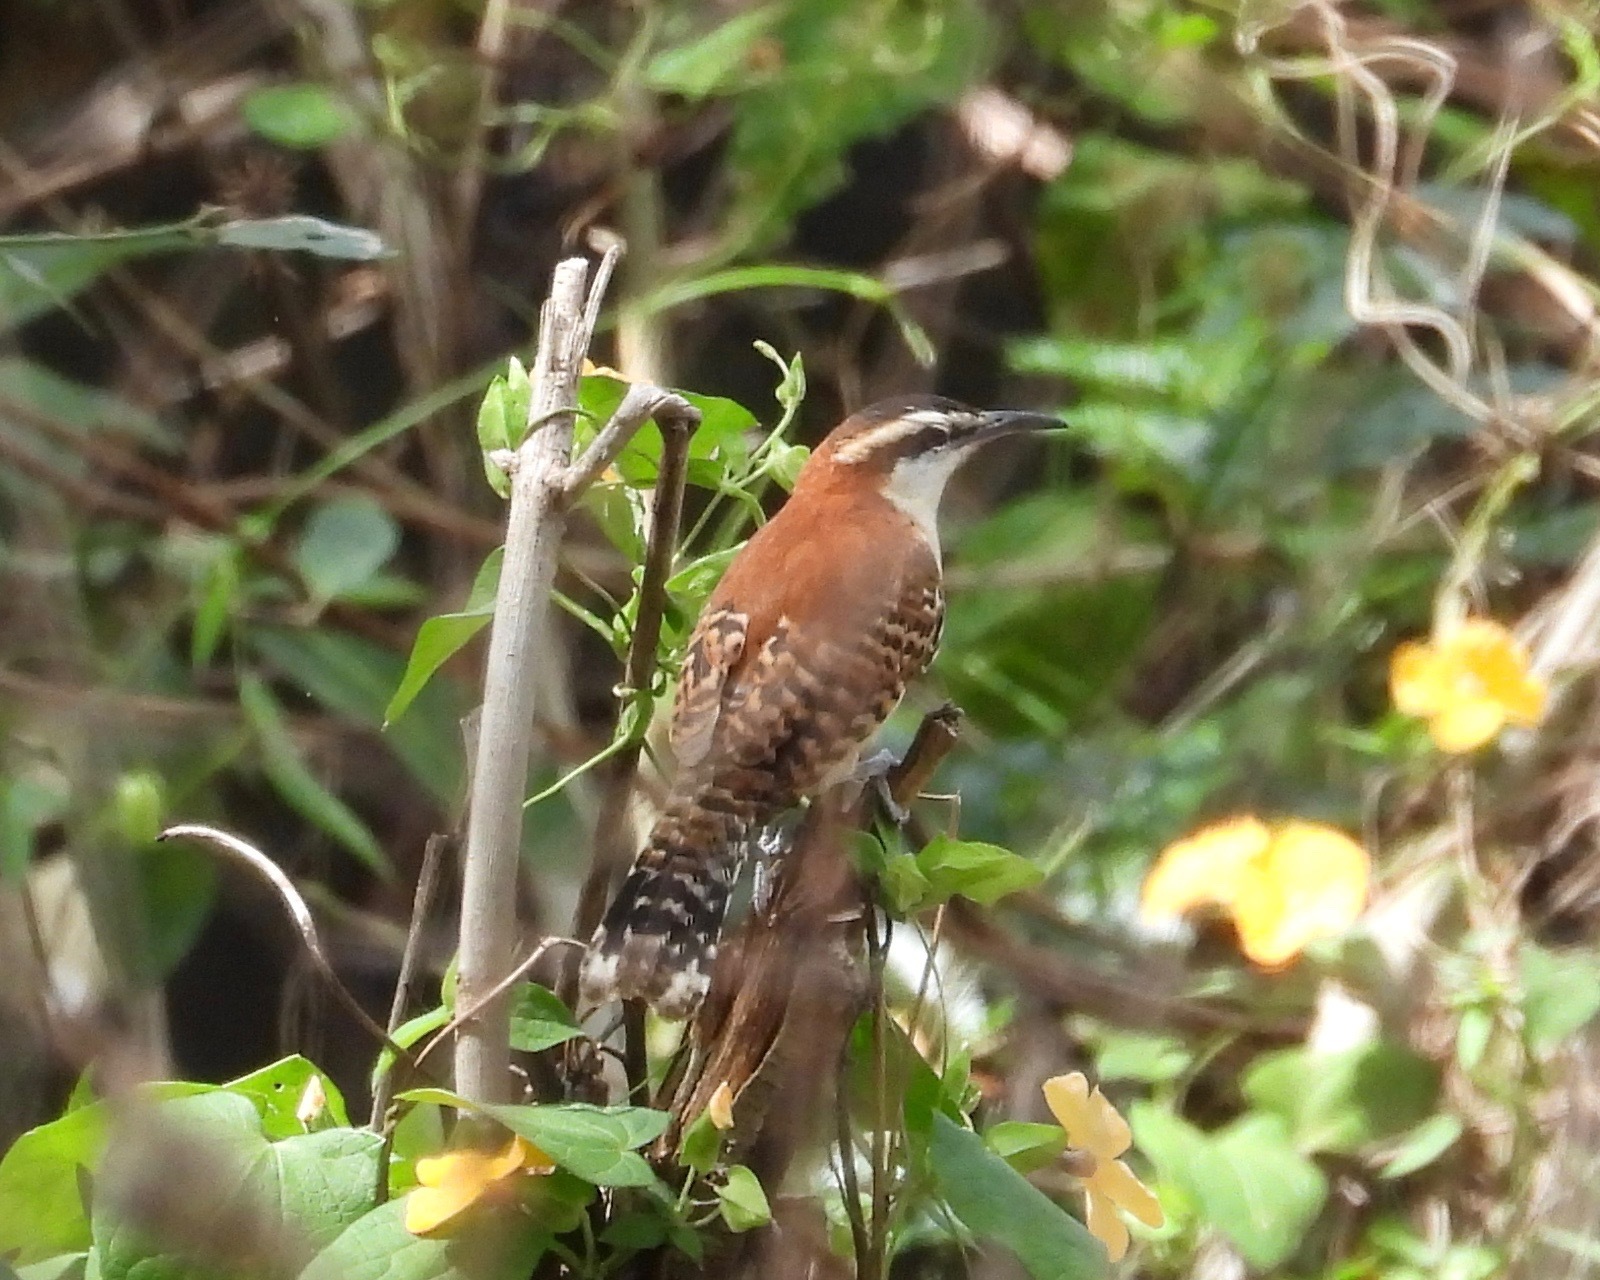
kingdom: Animalia
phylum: Chordata
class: Aves
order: Passeriformes
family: Troglodytidae
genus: Campylorhynchus
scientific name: Campylorhynchus rufinucha
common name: Rufous-naped wren
